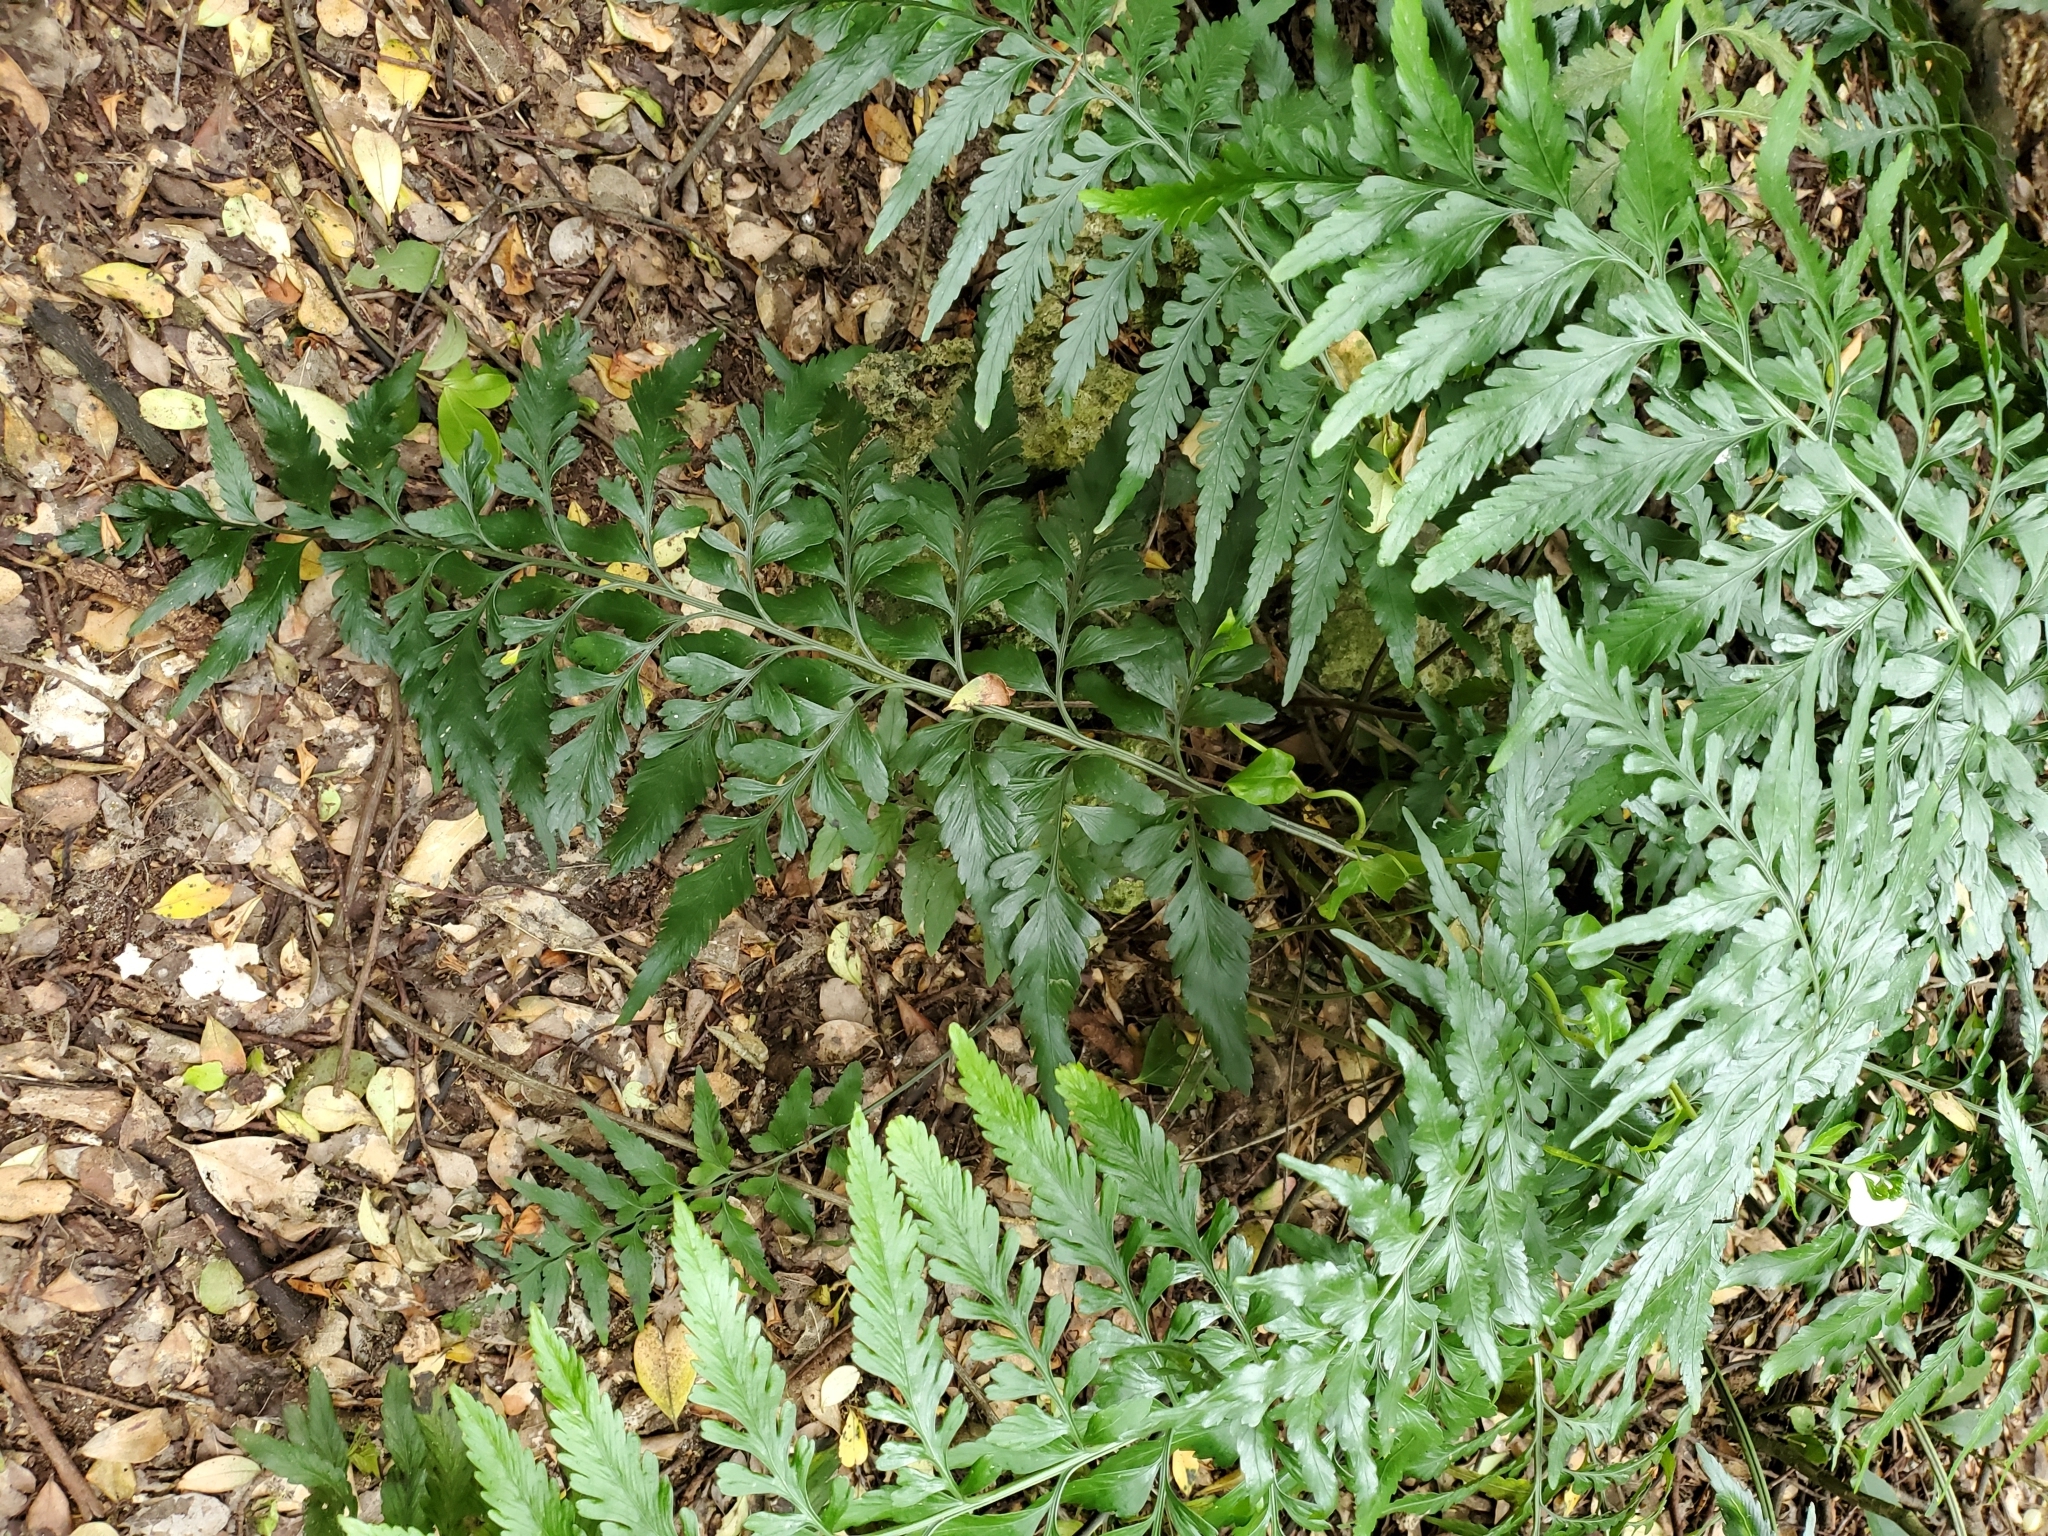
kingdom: Plantae
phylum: Tracheophyta
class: Polypodiopsida
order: Polypodiales
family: Aspleniaceae
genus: Asplenium
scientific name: Asplenium lyallii
